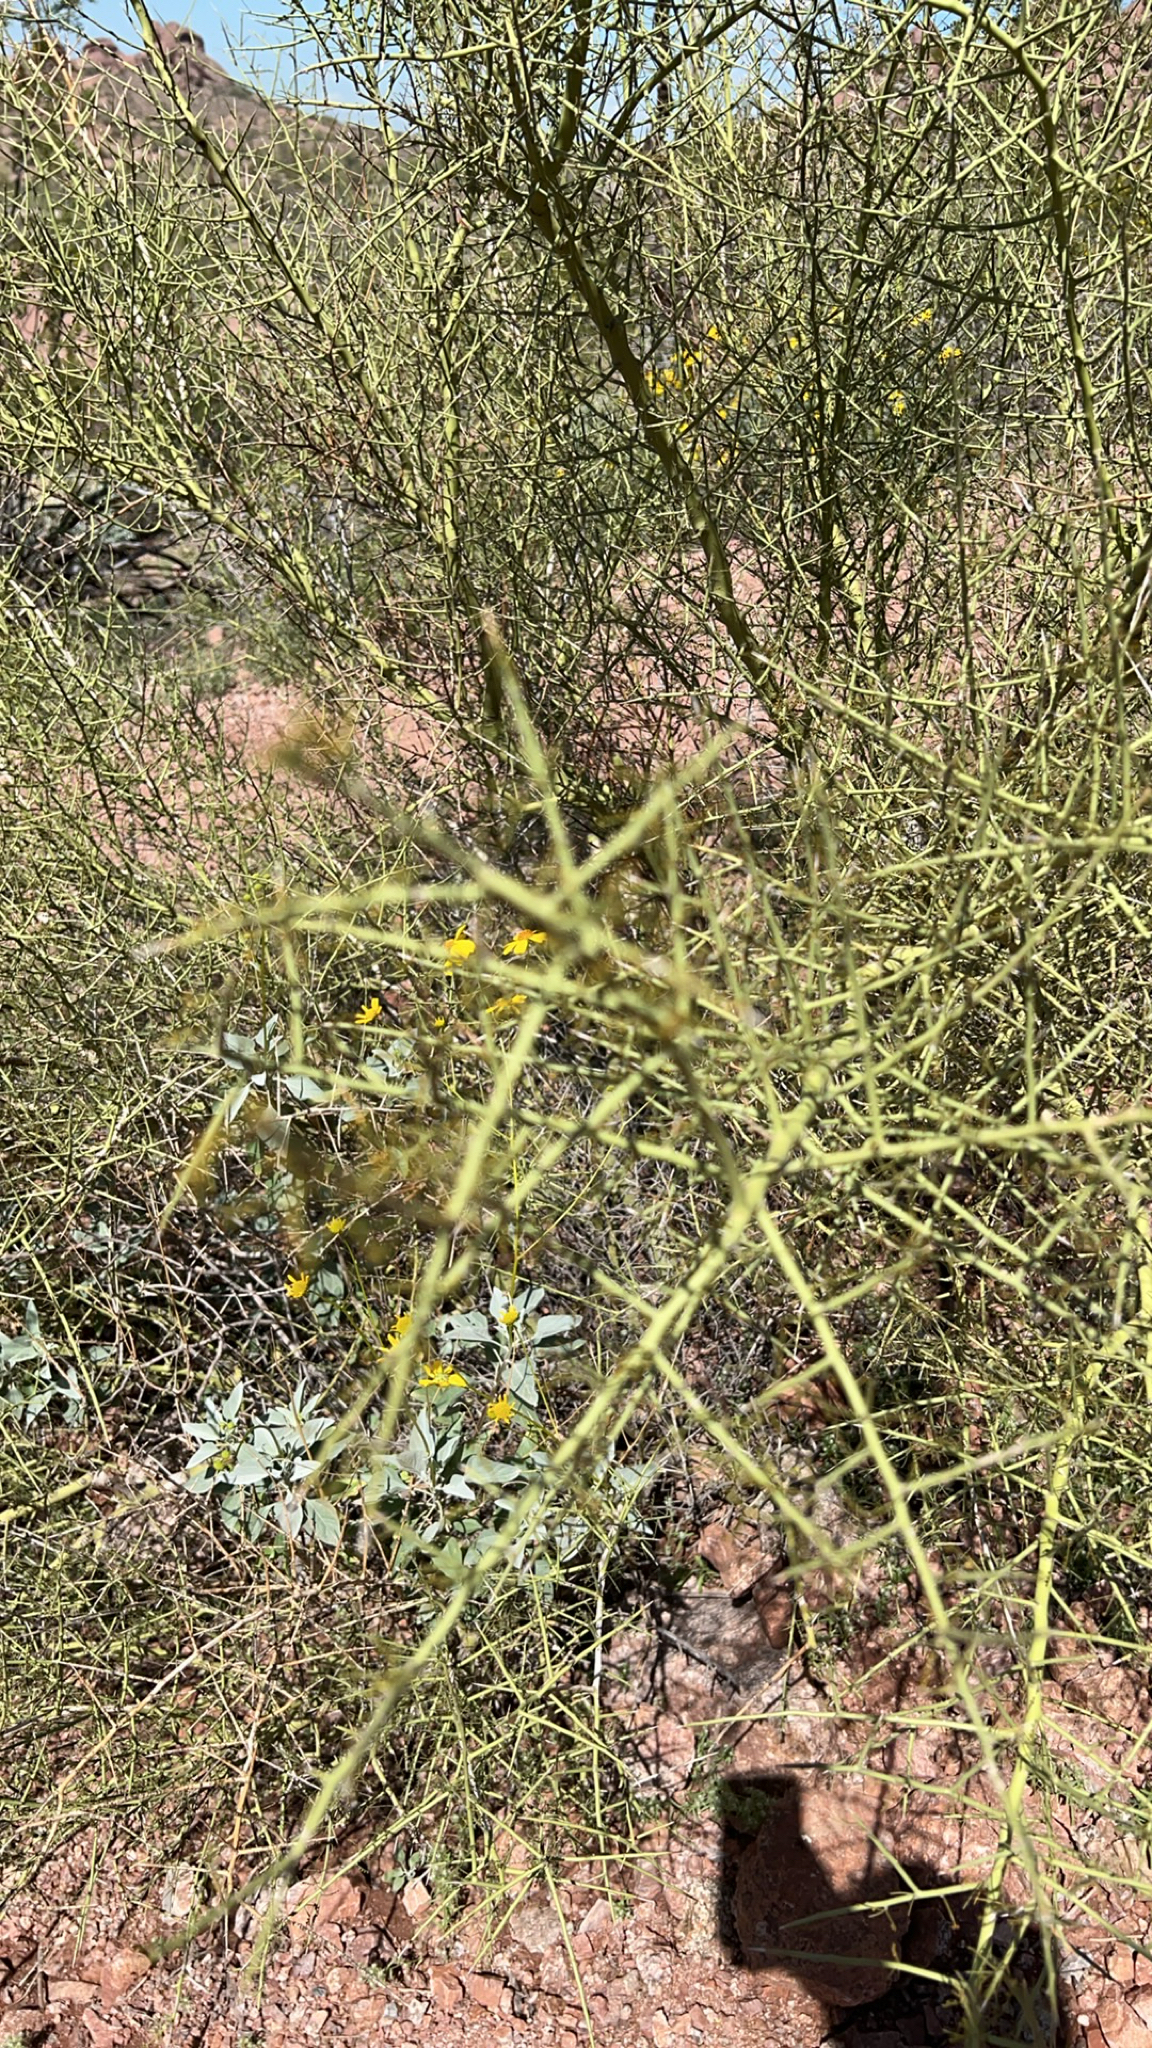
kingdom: Plantae
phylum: Tracheophyta
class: Magnoliopsida
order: Fabales
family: Fabaceae
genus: Parkinsonia
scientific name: Parkinsonia microphylla
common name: Yellow paloverde
